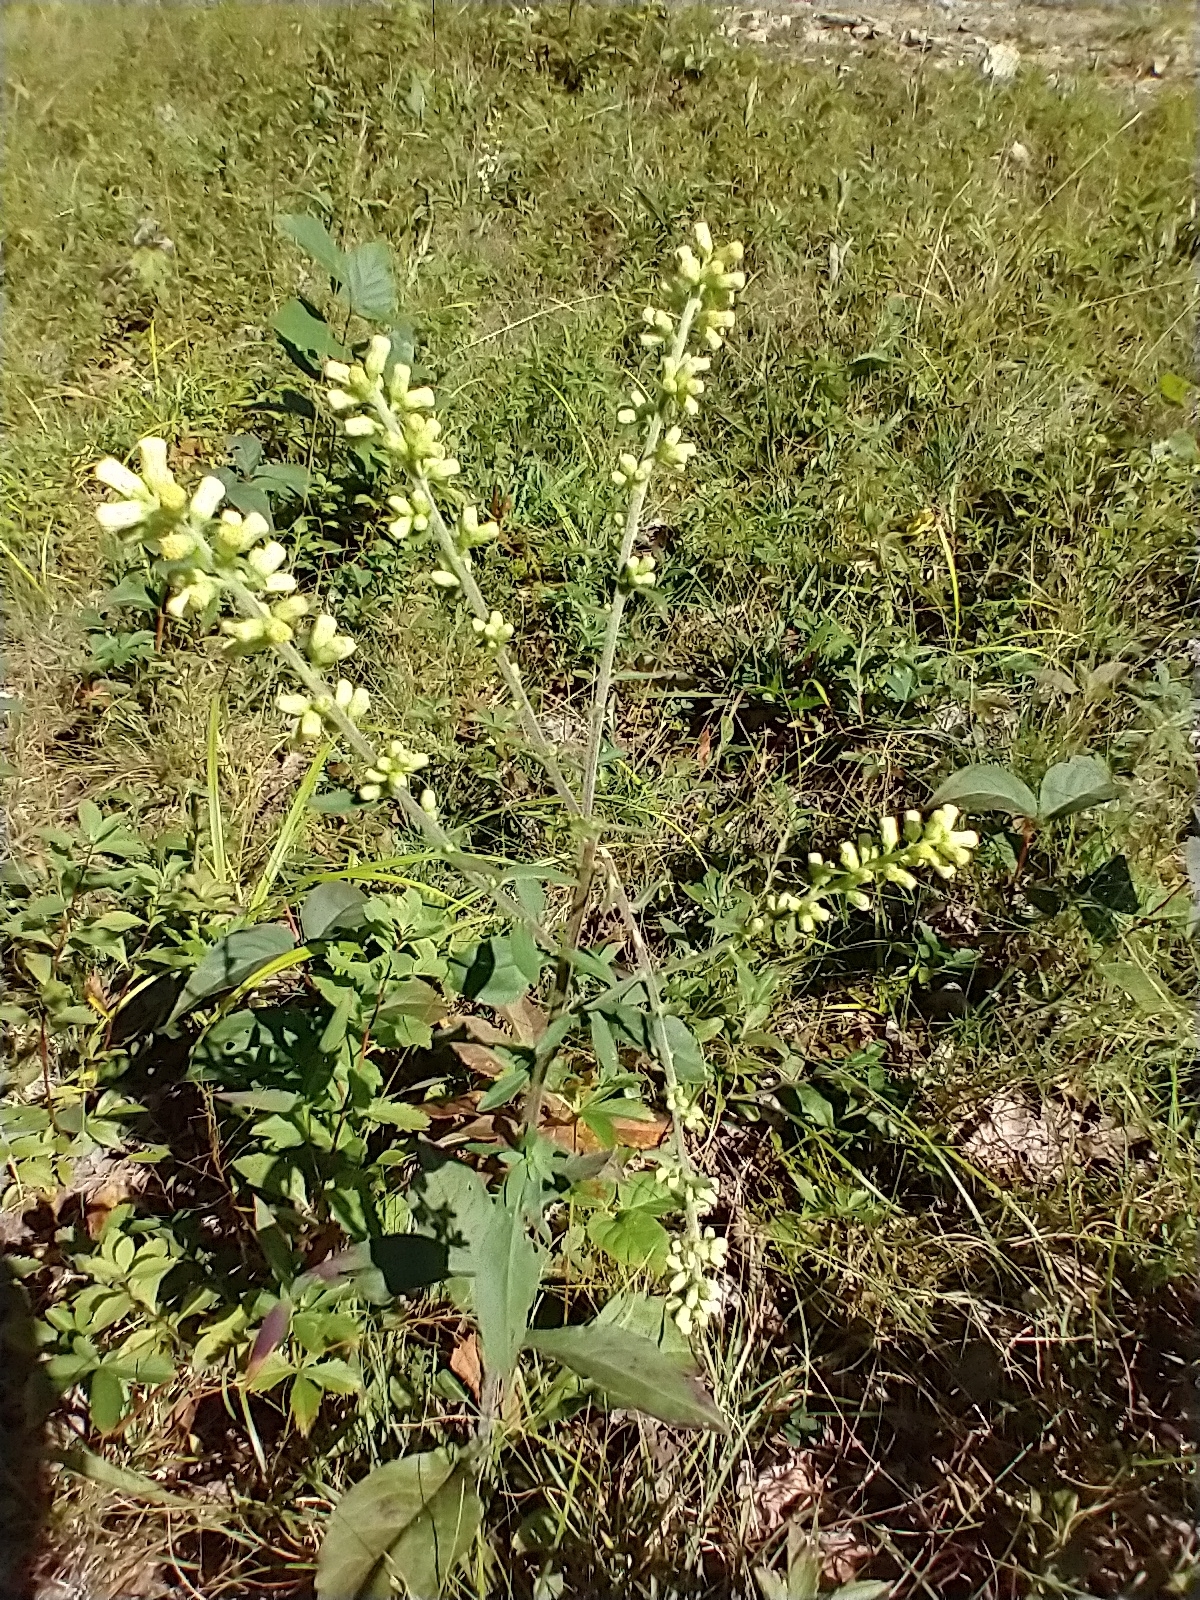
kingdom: Plantae
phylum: Tracheophyta
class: Magnoliopsida
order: Asterales
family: Asteraceae
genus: Solidago
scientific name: Solidago bicolor
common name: Silverrod
